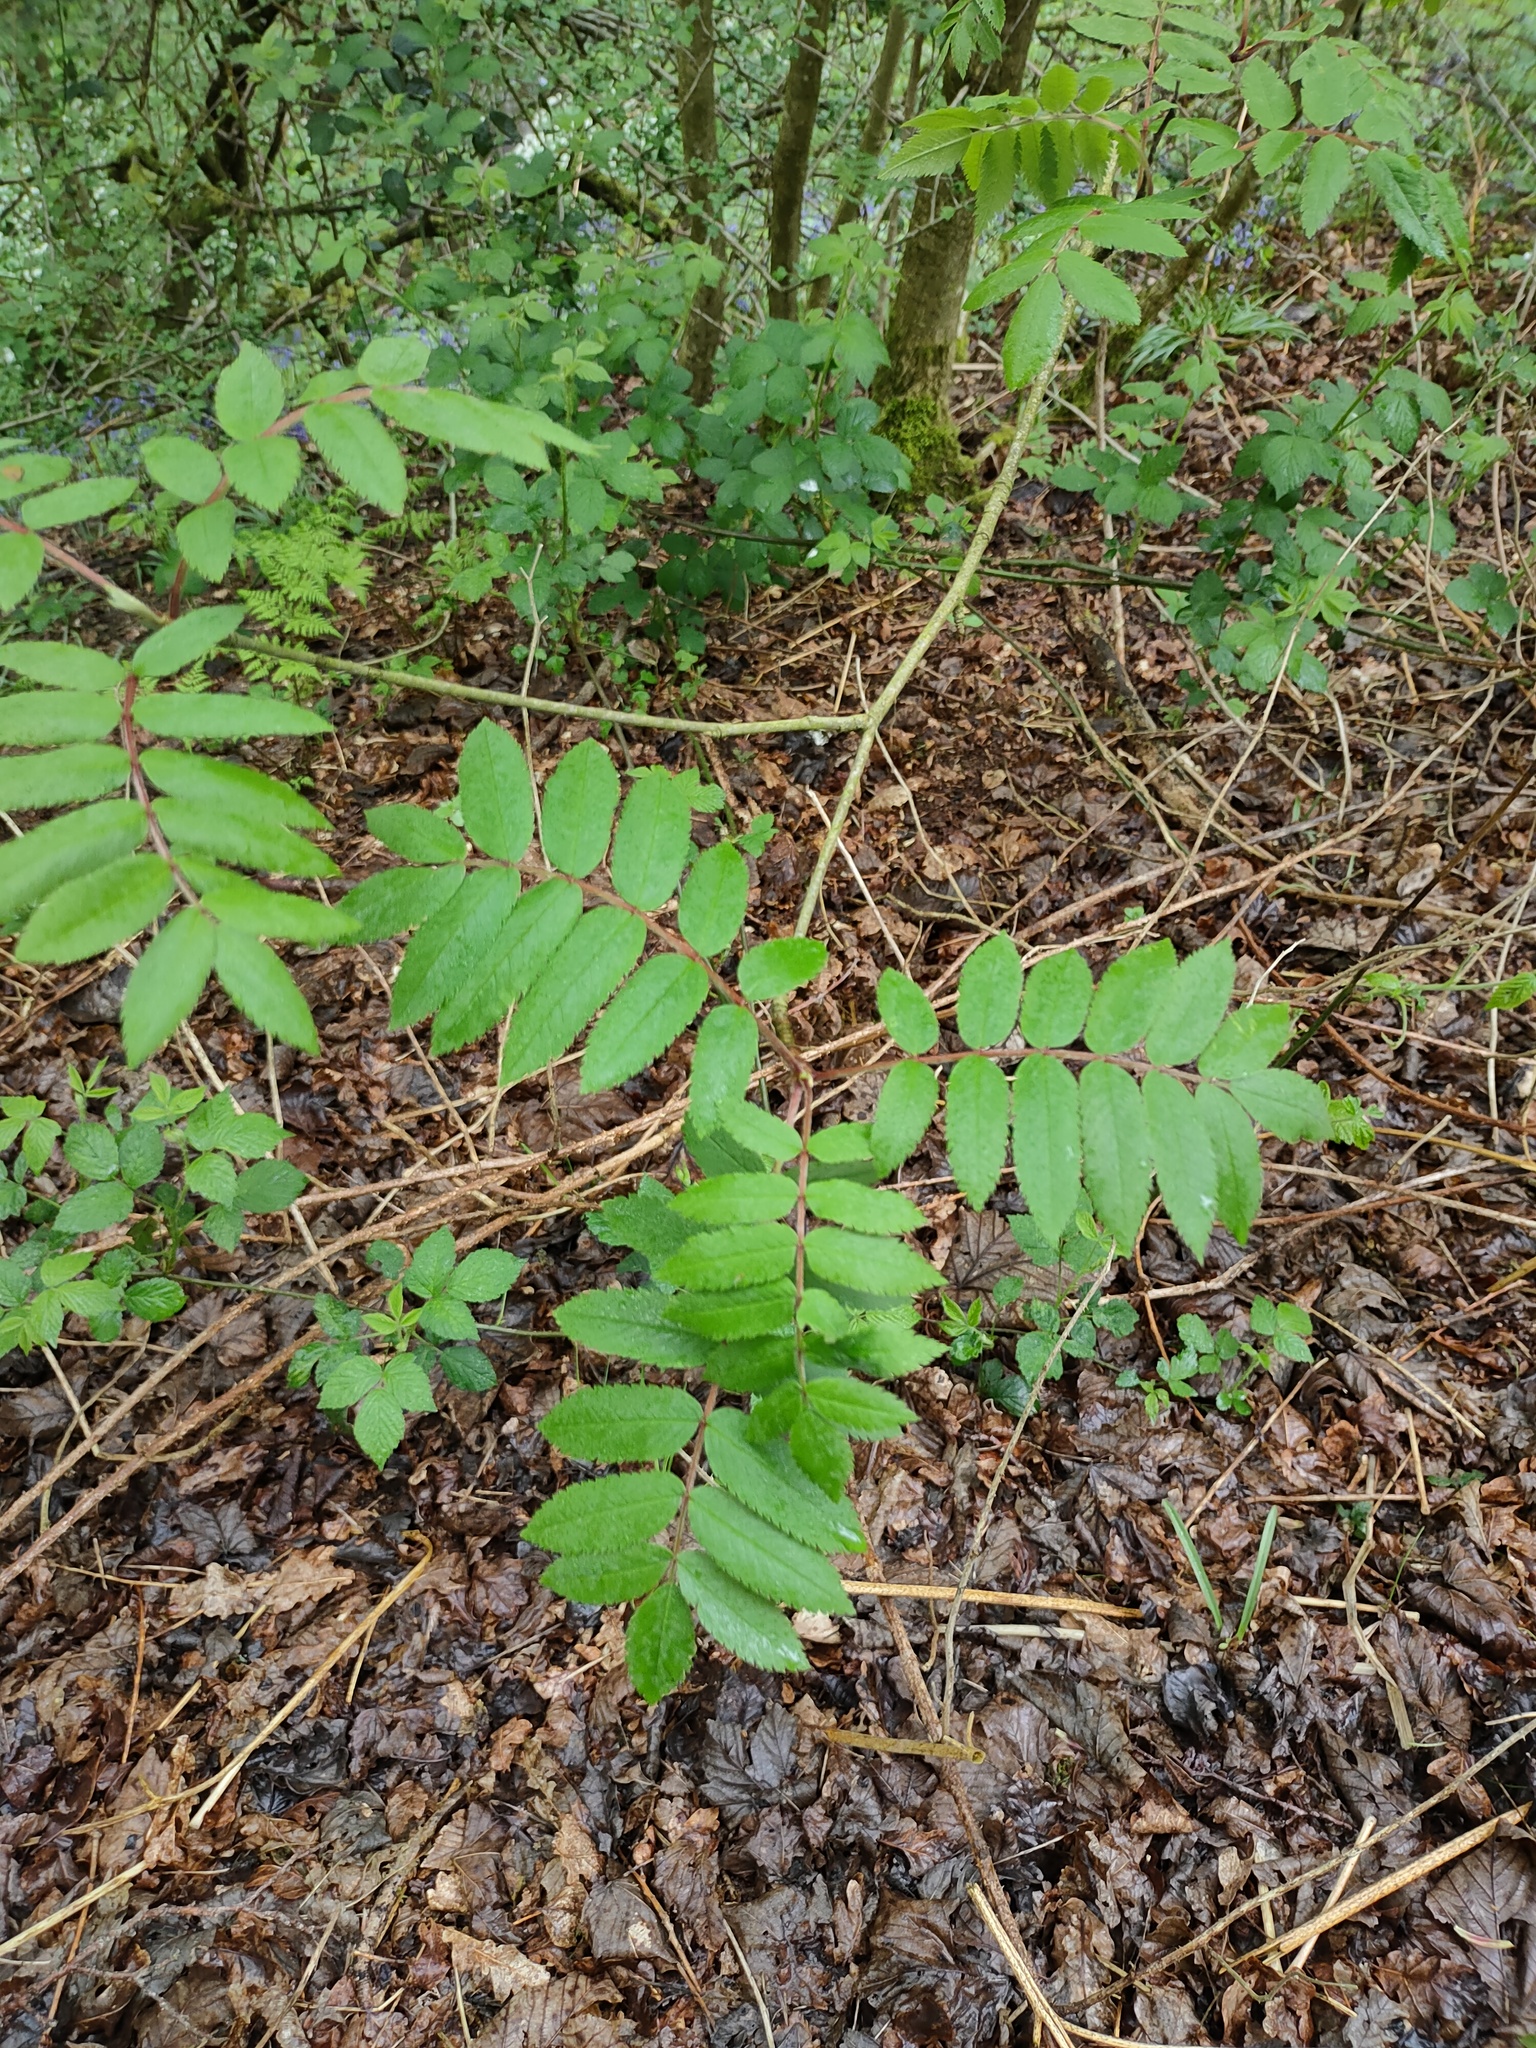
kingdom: Plantae
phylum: Tracheophyta
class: Magnoliopsida
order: Rosales
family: Rosaceae
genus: Sorbus
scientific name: Sorbus aucuparia
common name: Rowan
